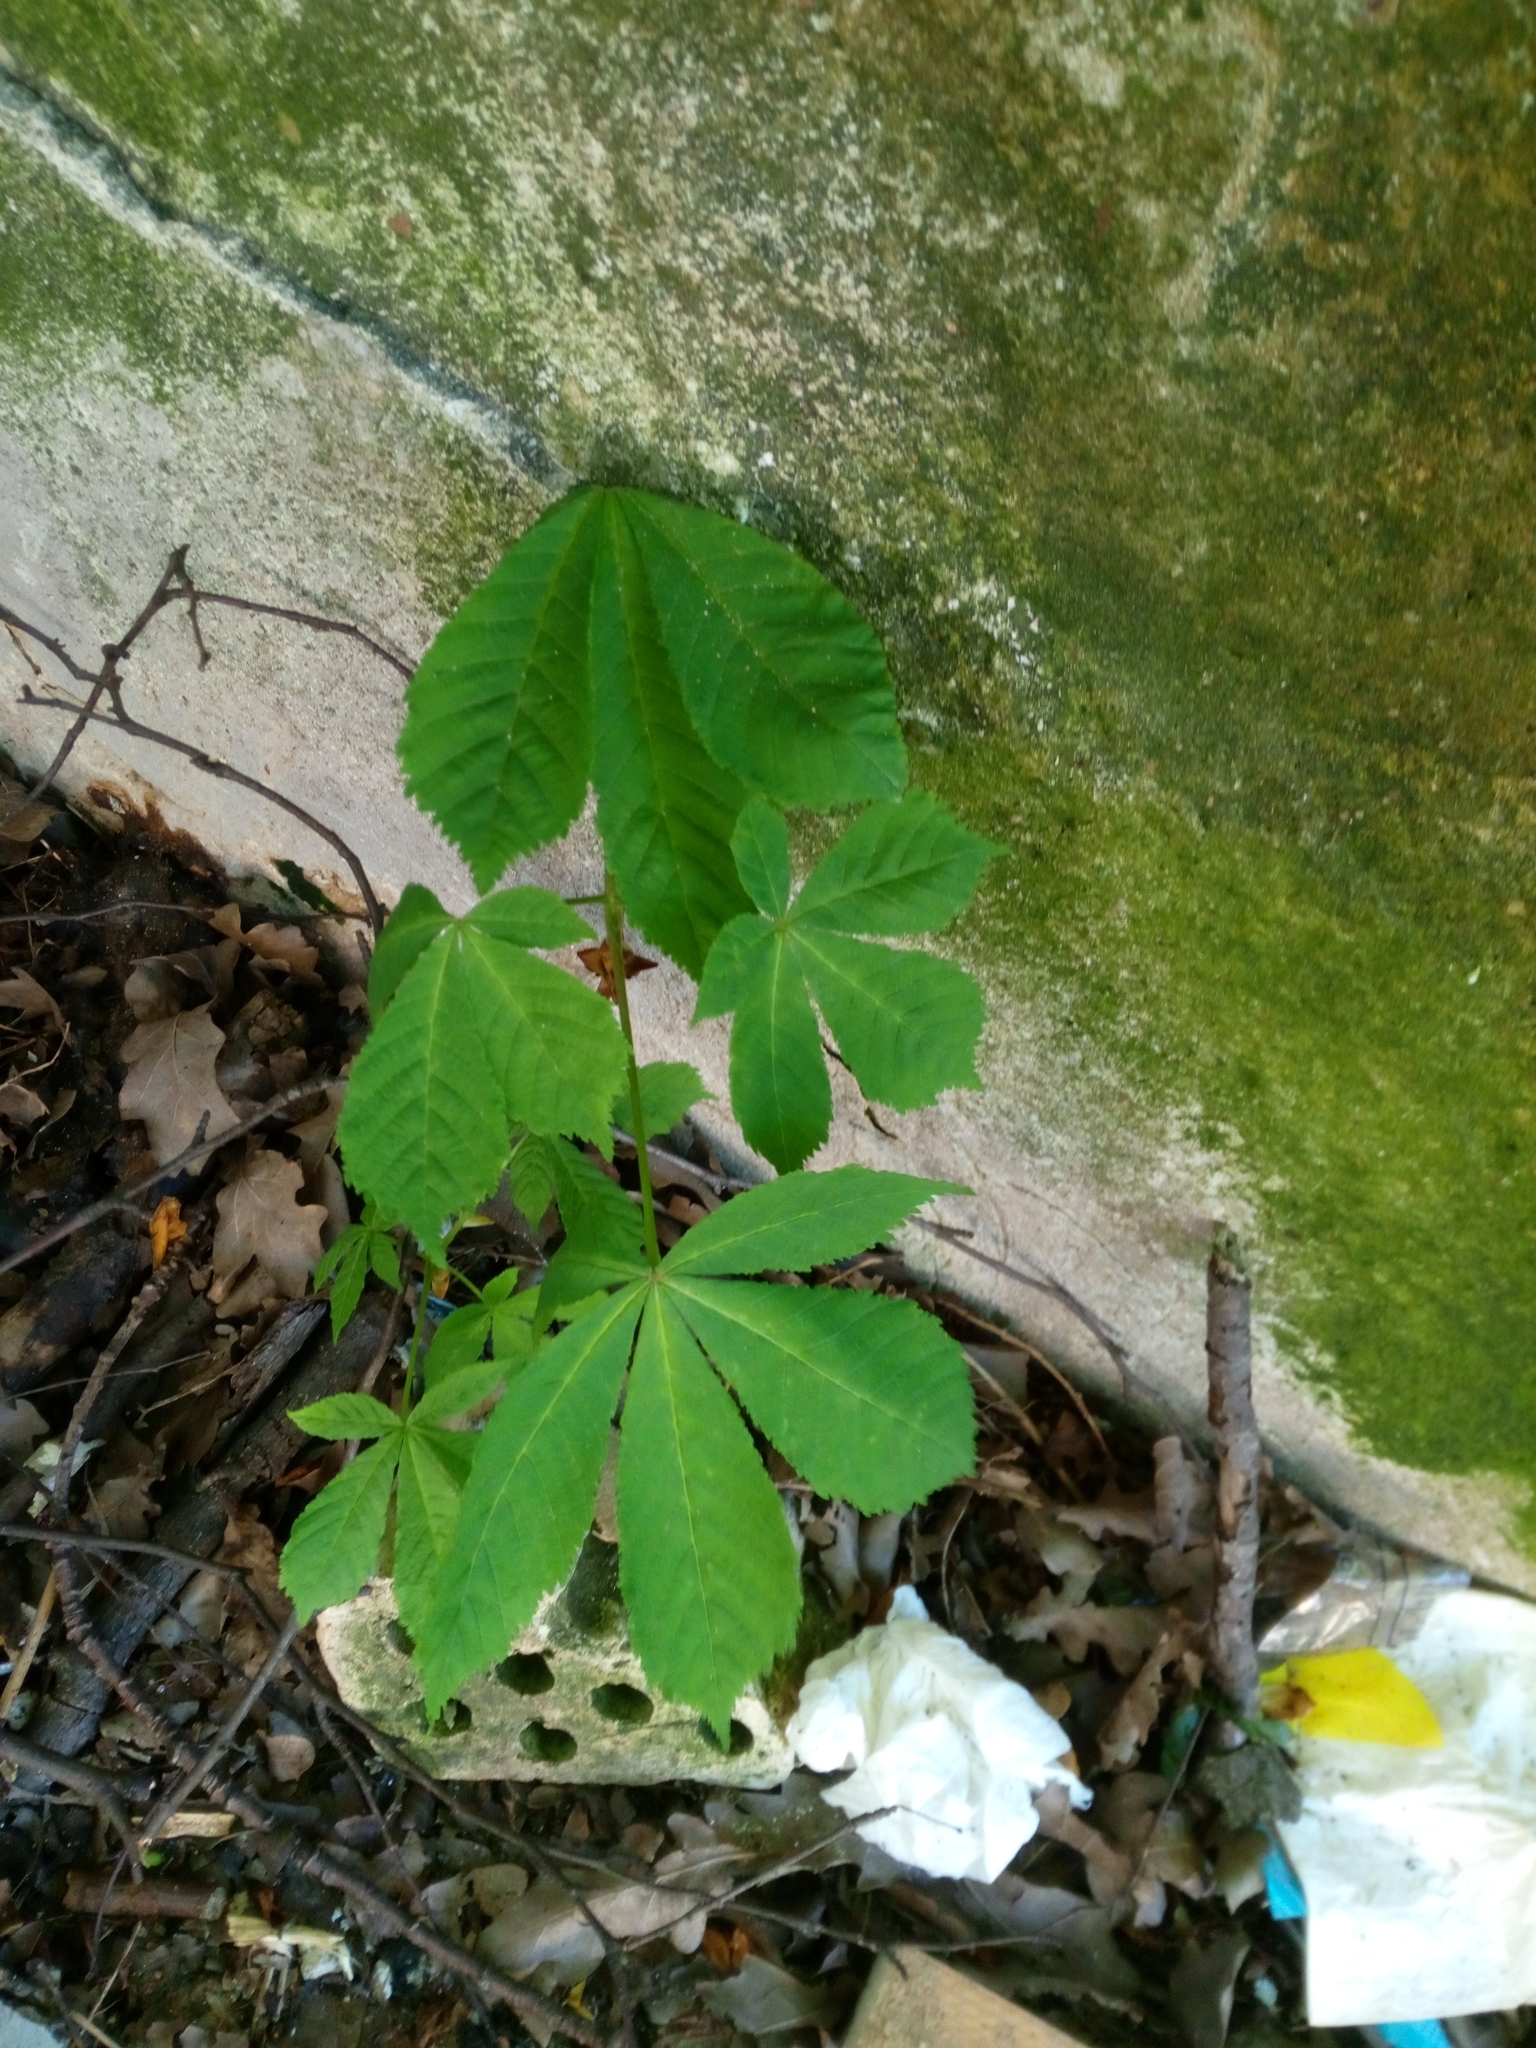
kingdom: Plantae
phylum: Tracheophyta
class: Magnoliopsida
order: Sapindales
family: Sapindaceae
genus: Aesculus
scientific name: Aesculus hippocastanum
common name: Horse-chestnut
